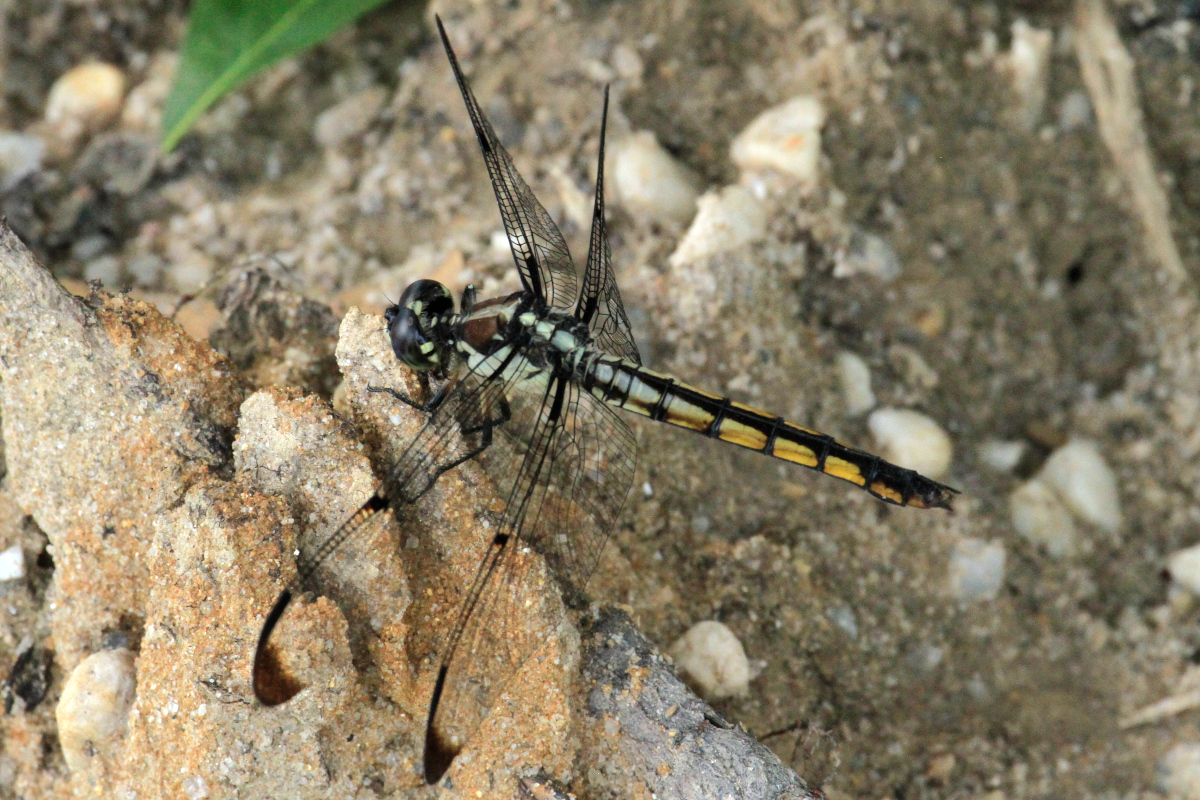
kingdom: Animalia
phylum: Arthropoda
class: Insecta
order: Odonata
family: Libellulidae
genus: Libellula
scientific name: Libellula vibrans
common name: Great blue skimmer
